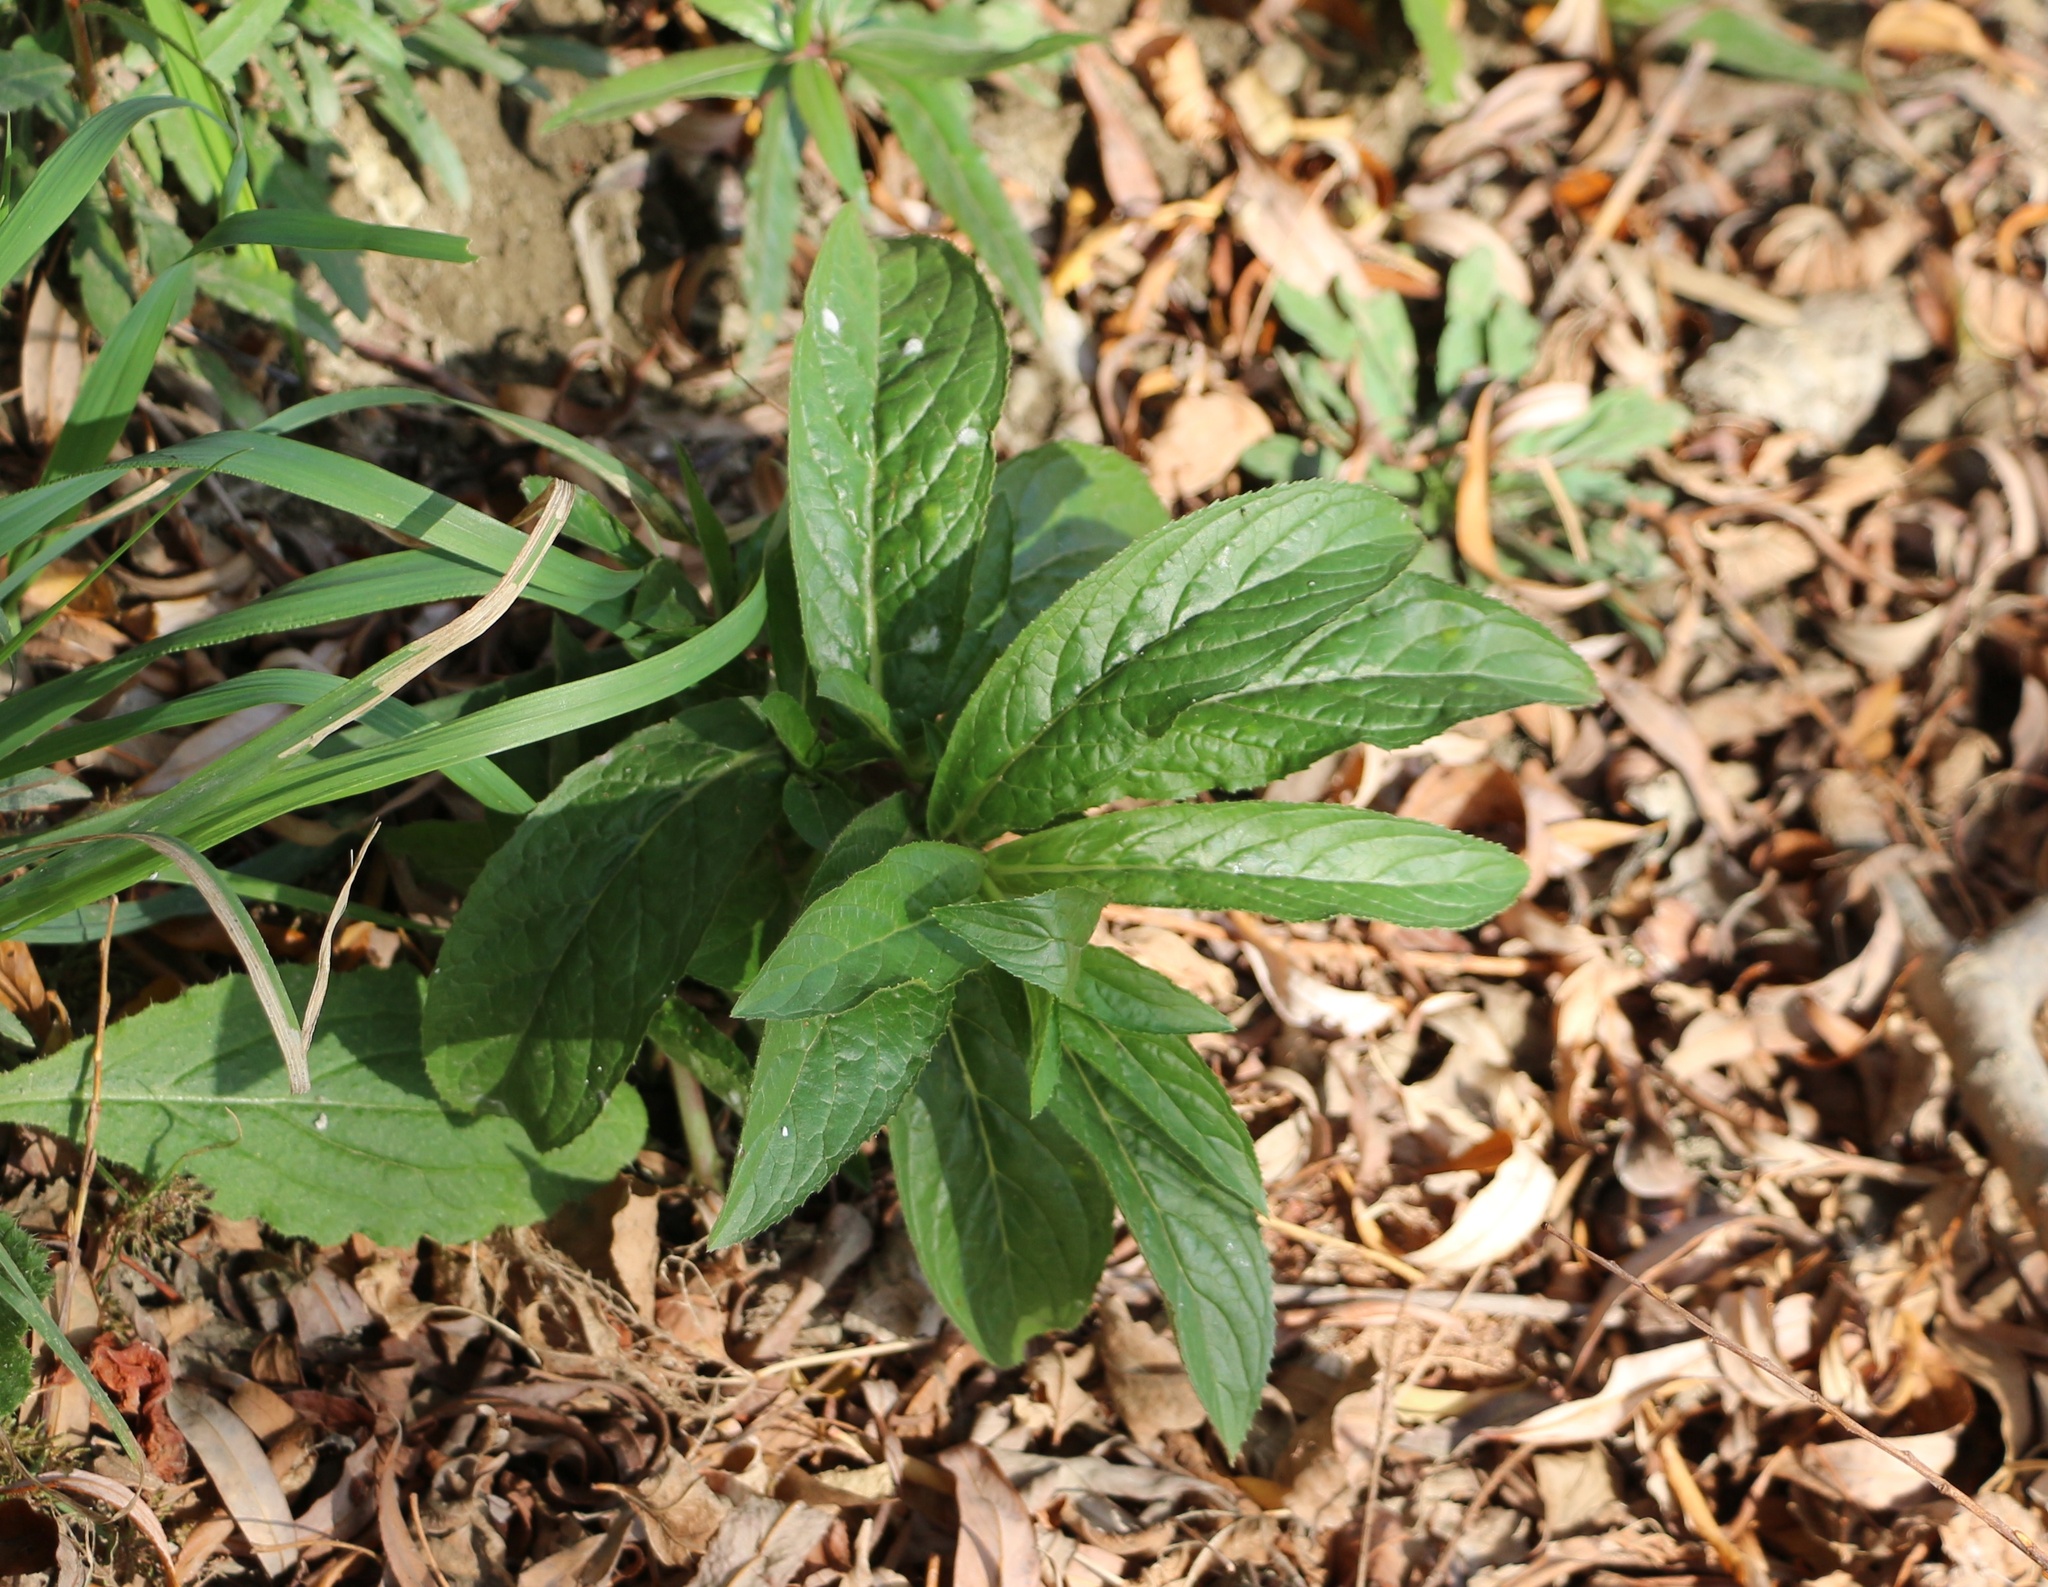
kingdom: Plantae
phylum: Tracheophyta
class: Magnoliopsida
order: Myrtales
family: Onagraceae
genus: Epilobium
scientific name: Epilobium hirsutum
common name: Great willowherb
